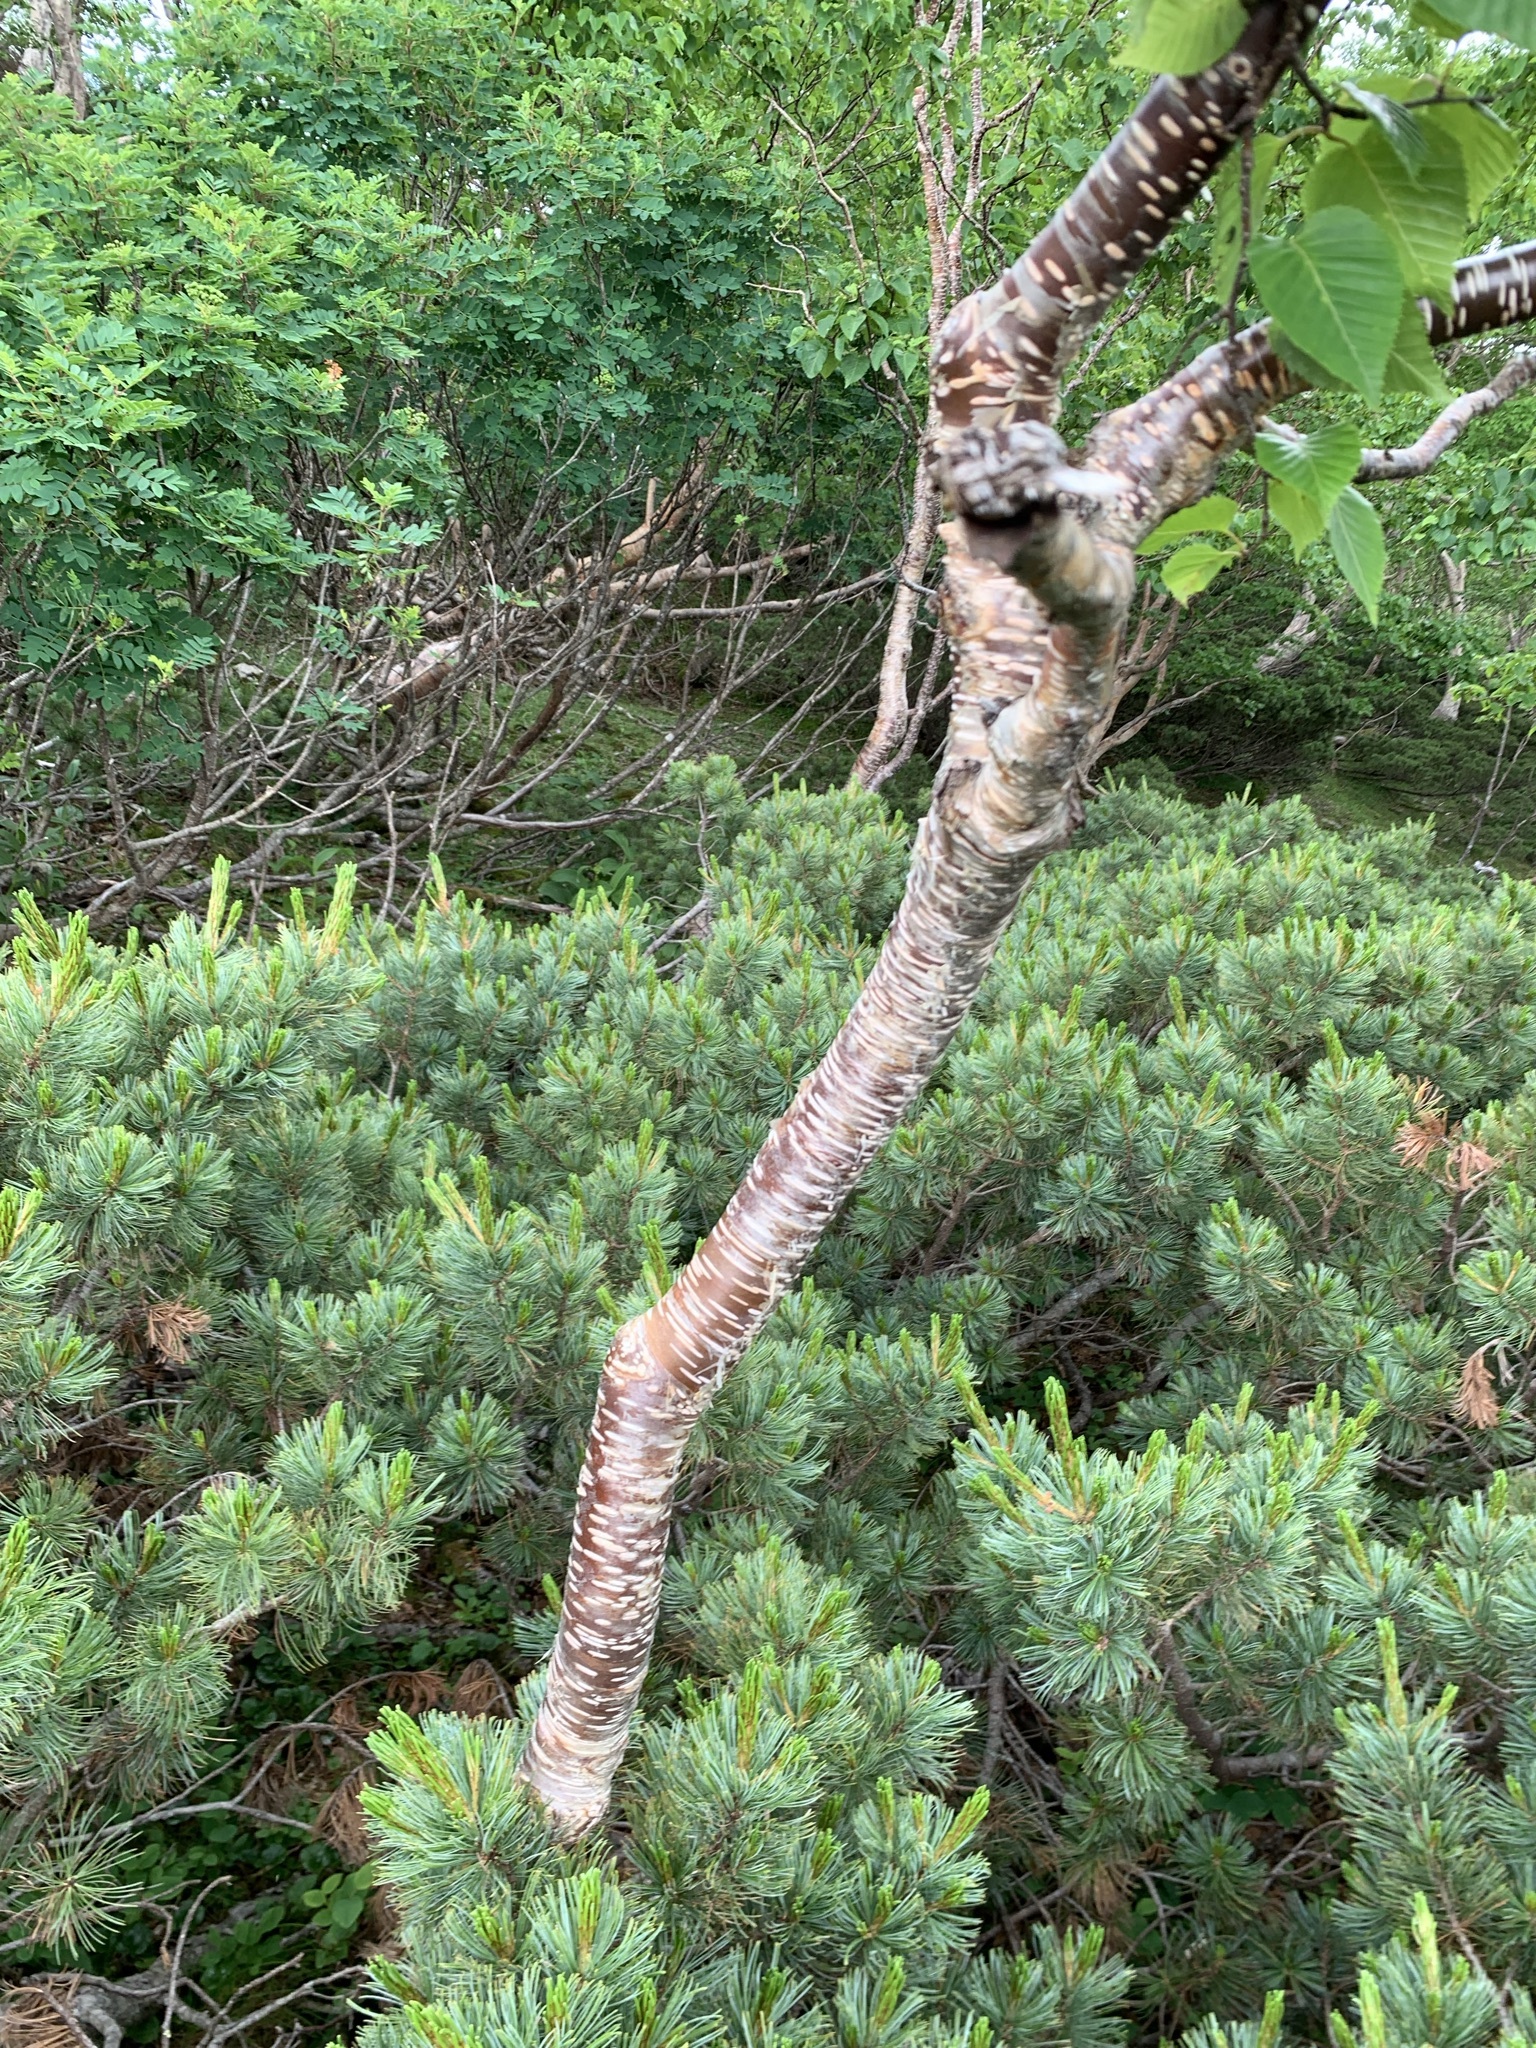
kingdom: Plantae
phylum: Tracheophyta
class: Magnoliopsida
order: Fagales
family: Betulaceae
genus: Betula
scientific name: Betula ermanii
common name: Erman's birch
